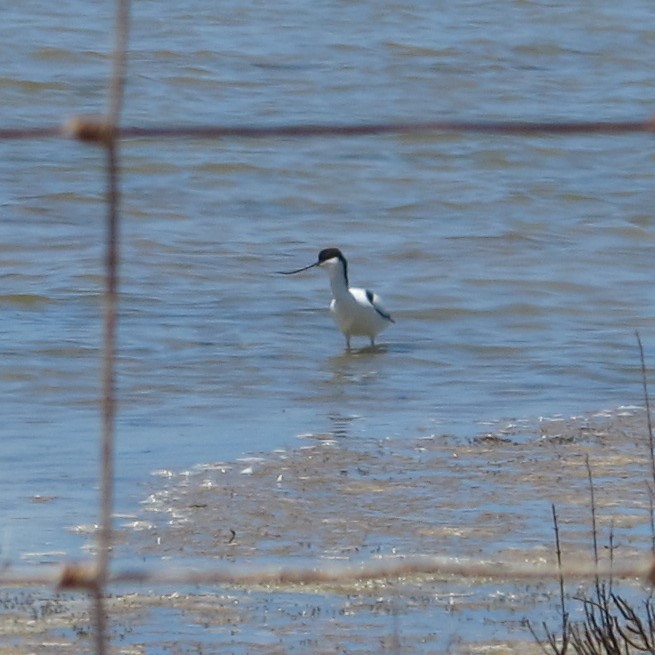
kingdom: Animalia
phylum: Chordata
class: Aves
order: Charadriiformes
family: Recurvirostridae
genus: Recurvirostra
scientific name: Recurvirostra avosetta
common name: Pied avocet
